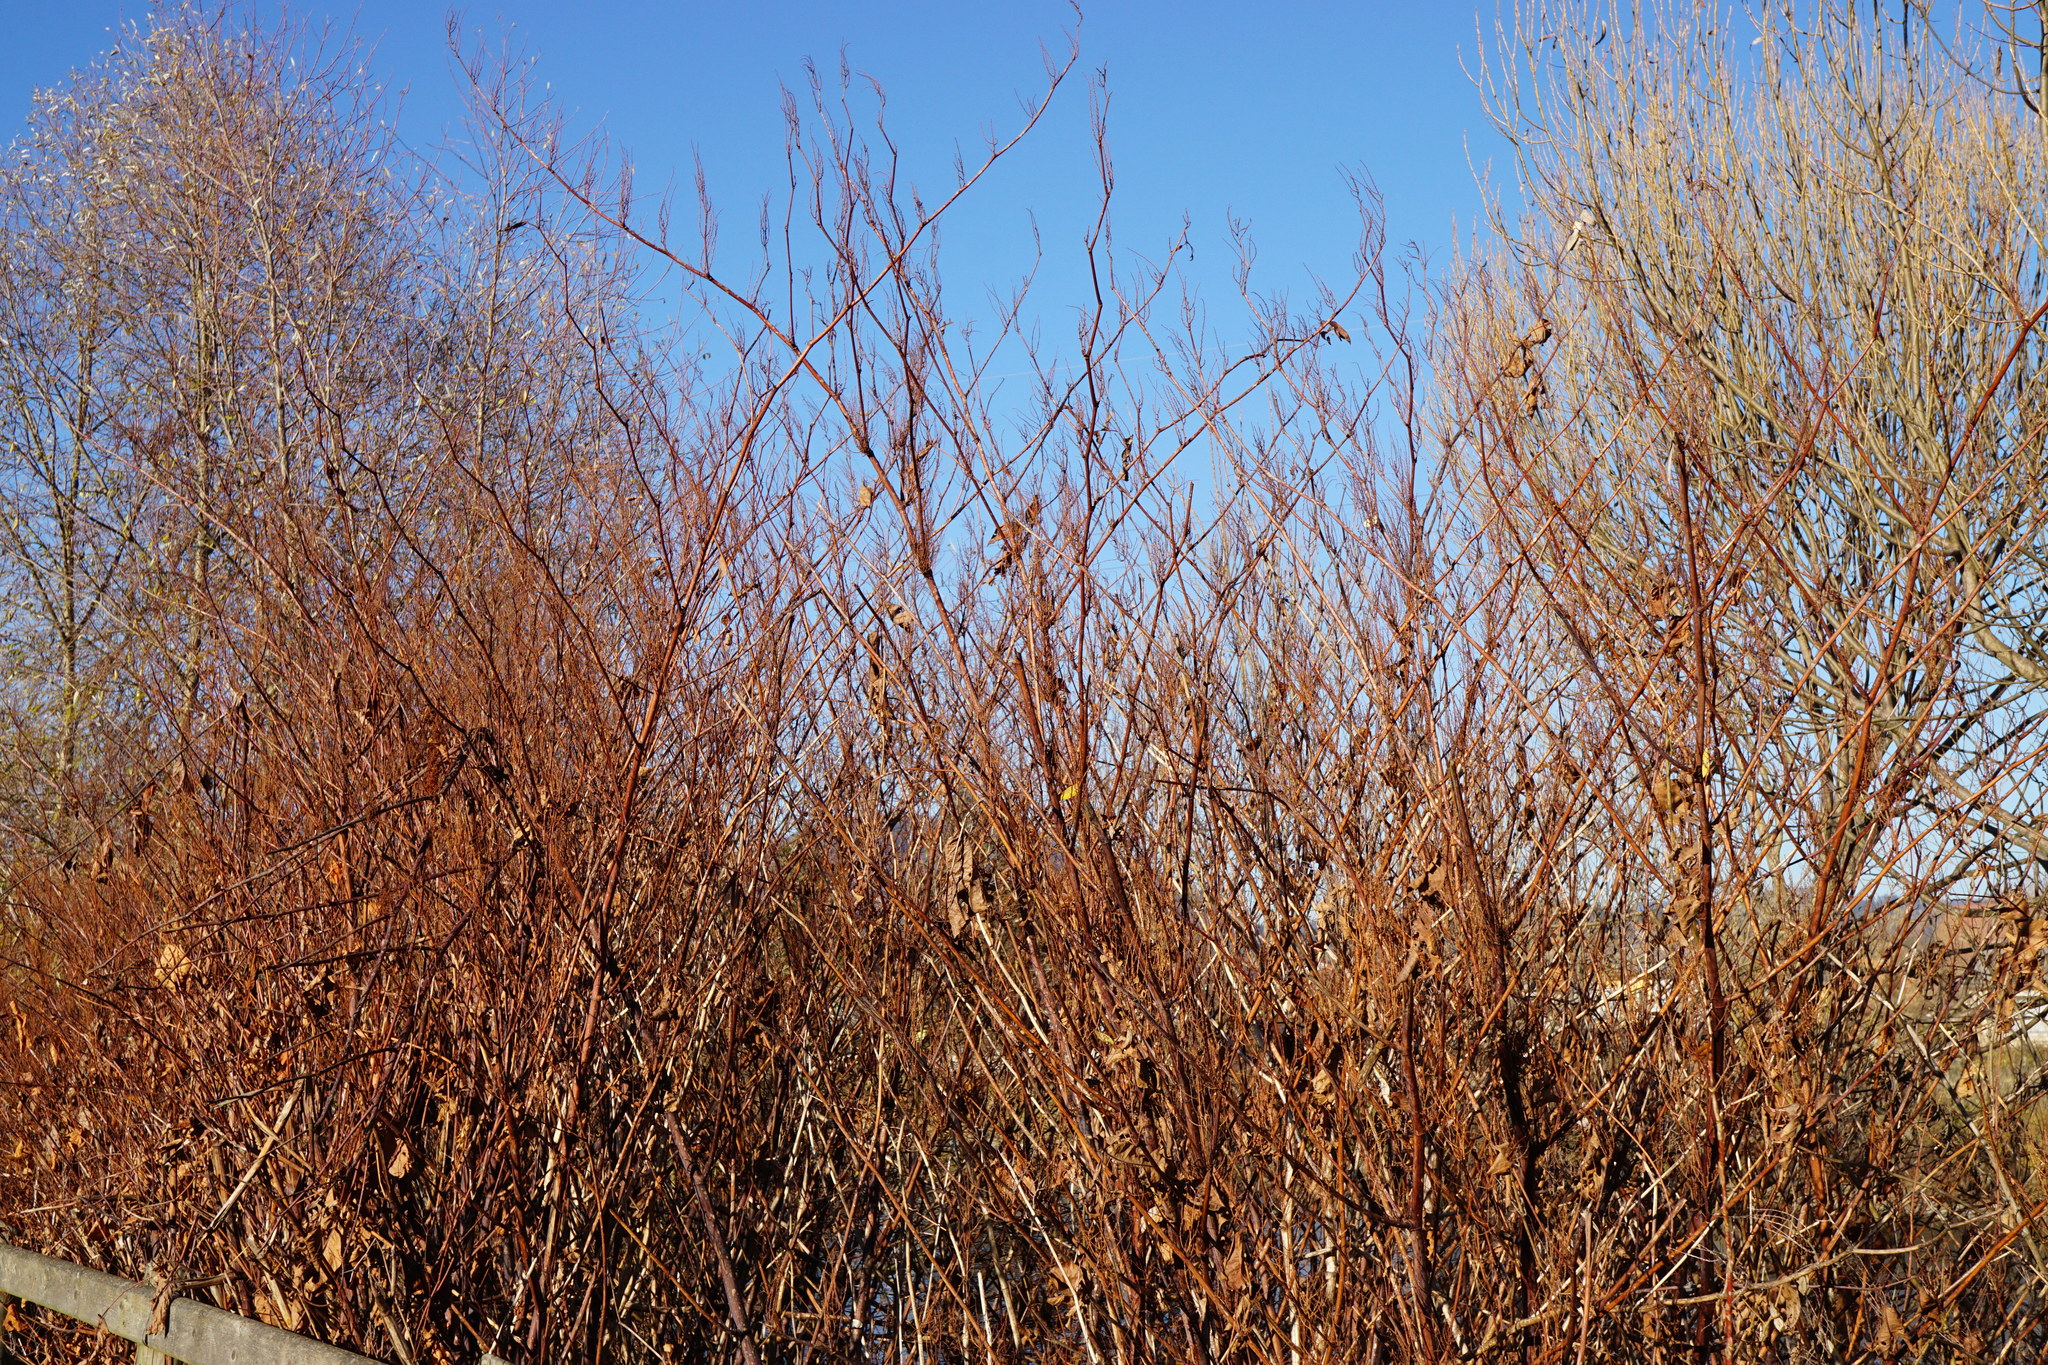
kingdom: Plantae
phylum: Tracheophyta
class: Magnoliopsida
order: Caryophyllales
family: Polygonaceae
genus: Reynoutria
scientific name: Reynoutria bohemica
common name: Bohemian knotweed
